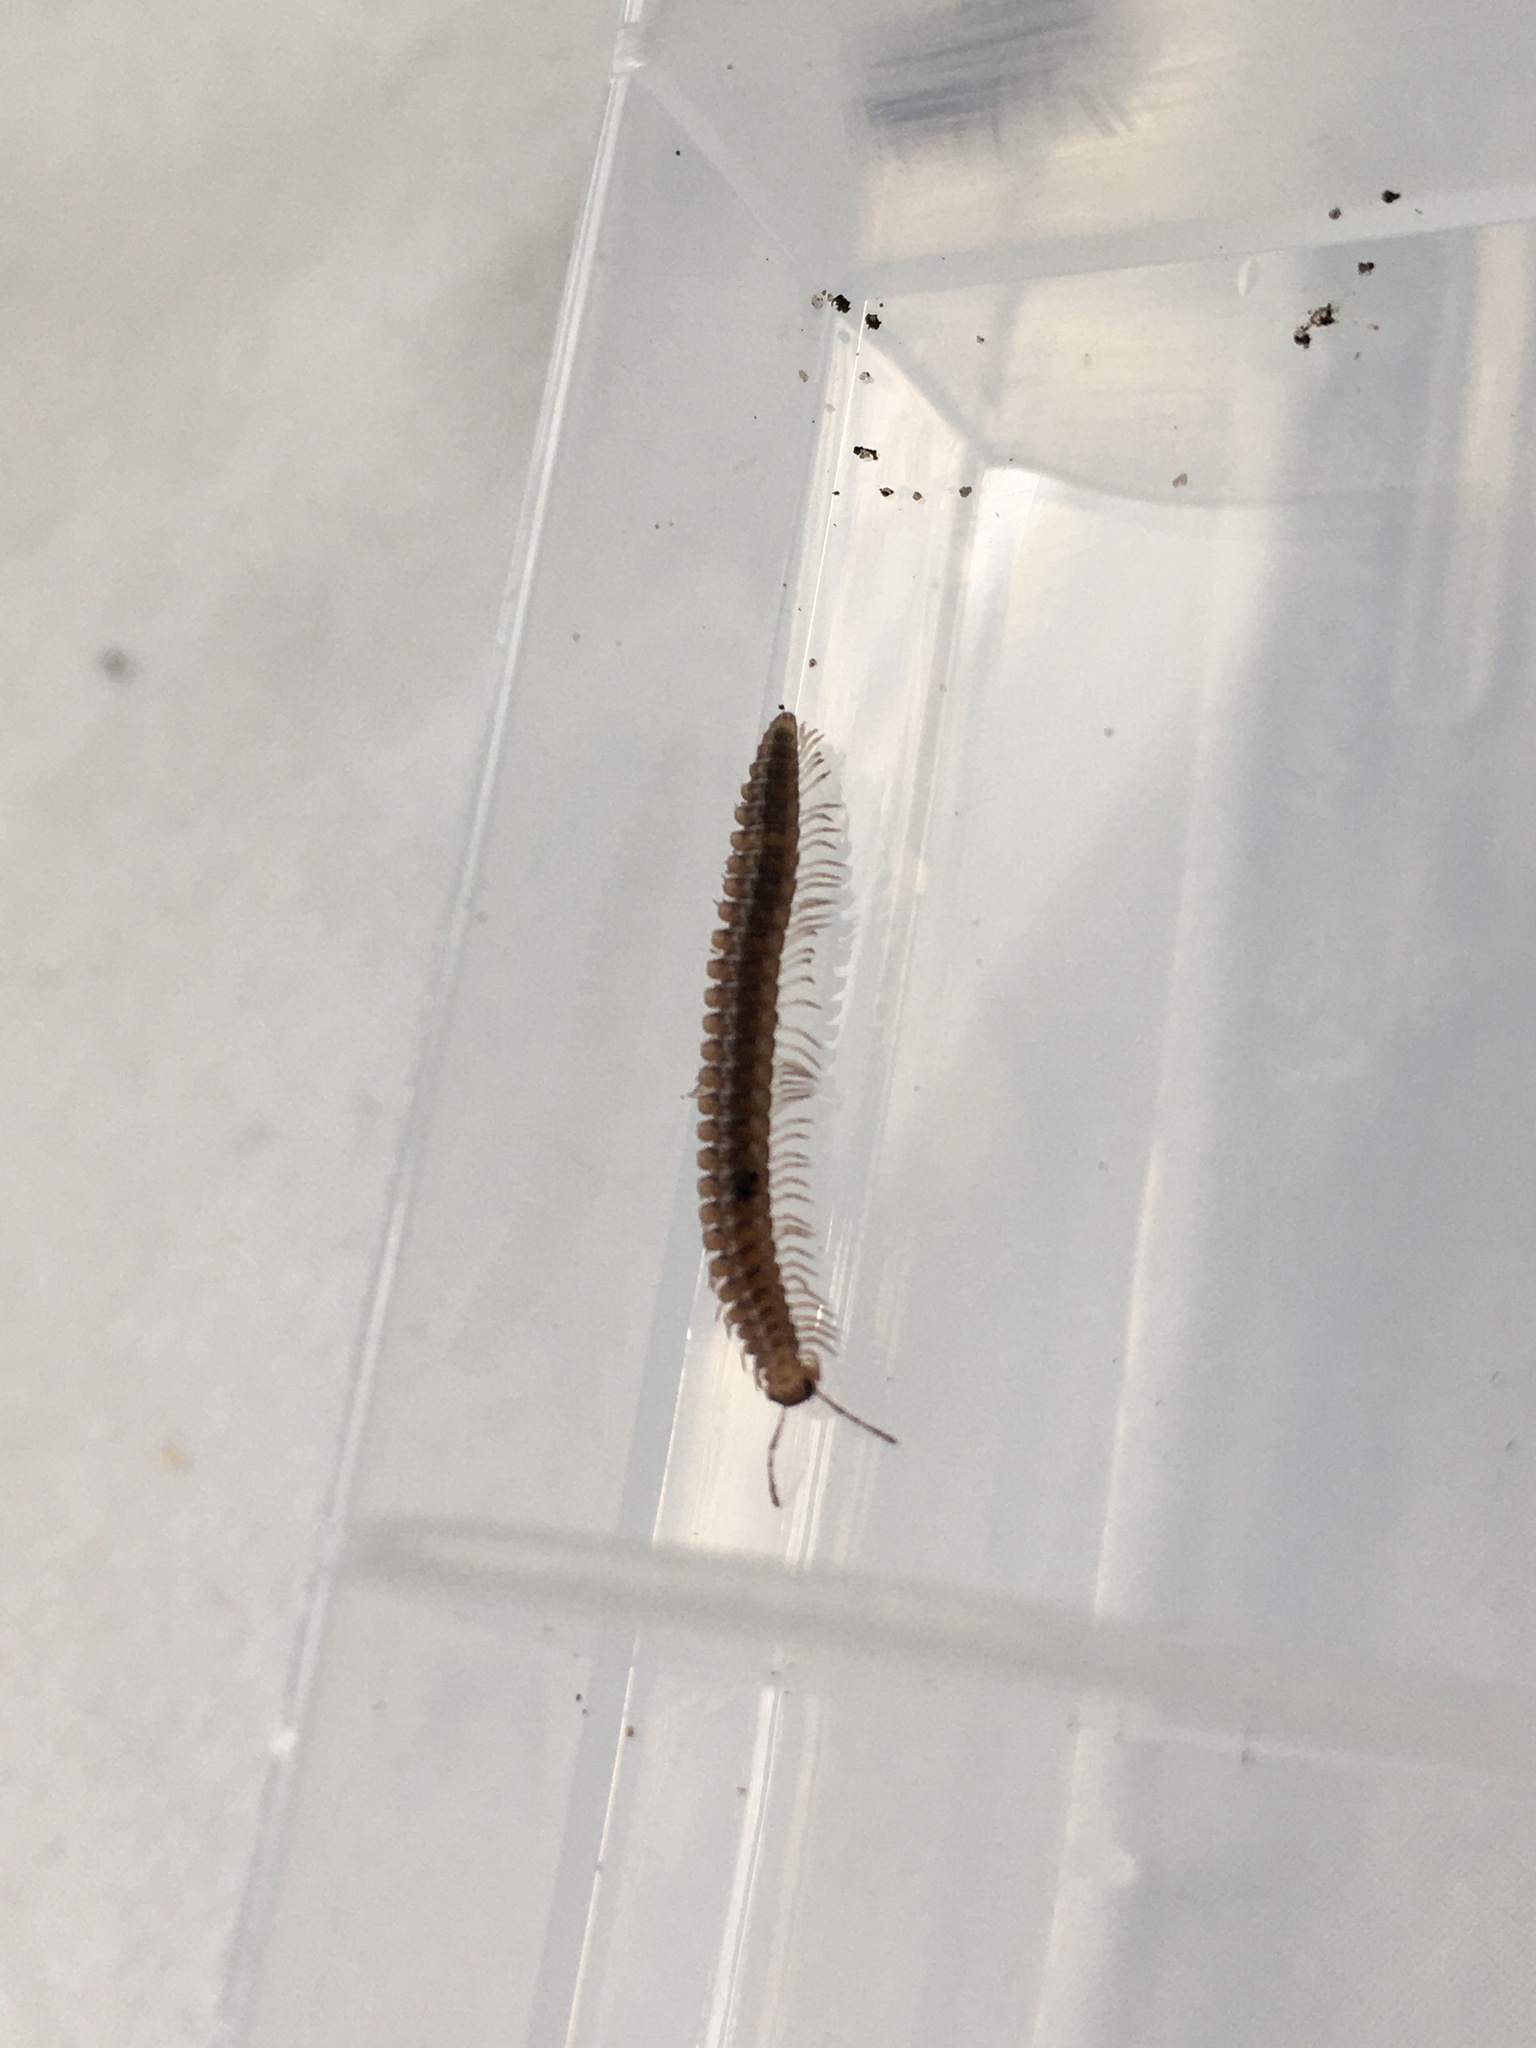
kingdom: Animalia
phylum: Arthropoda
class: Diplopoda
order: Chordeumatida
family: Craspedosomatidae
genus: Nanogona
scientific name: Nanogona polydesmoides
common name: Eyed flat-backed millipede
